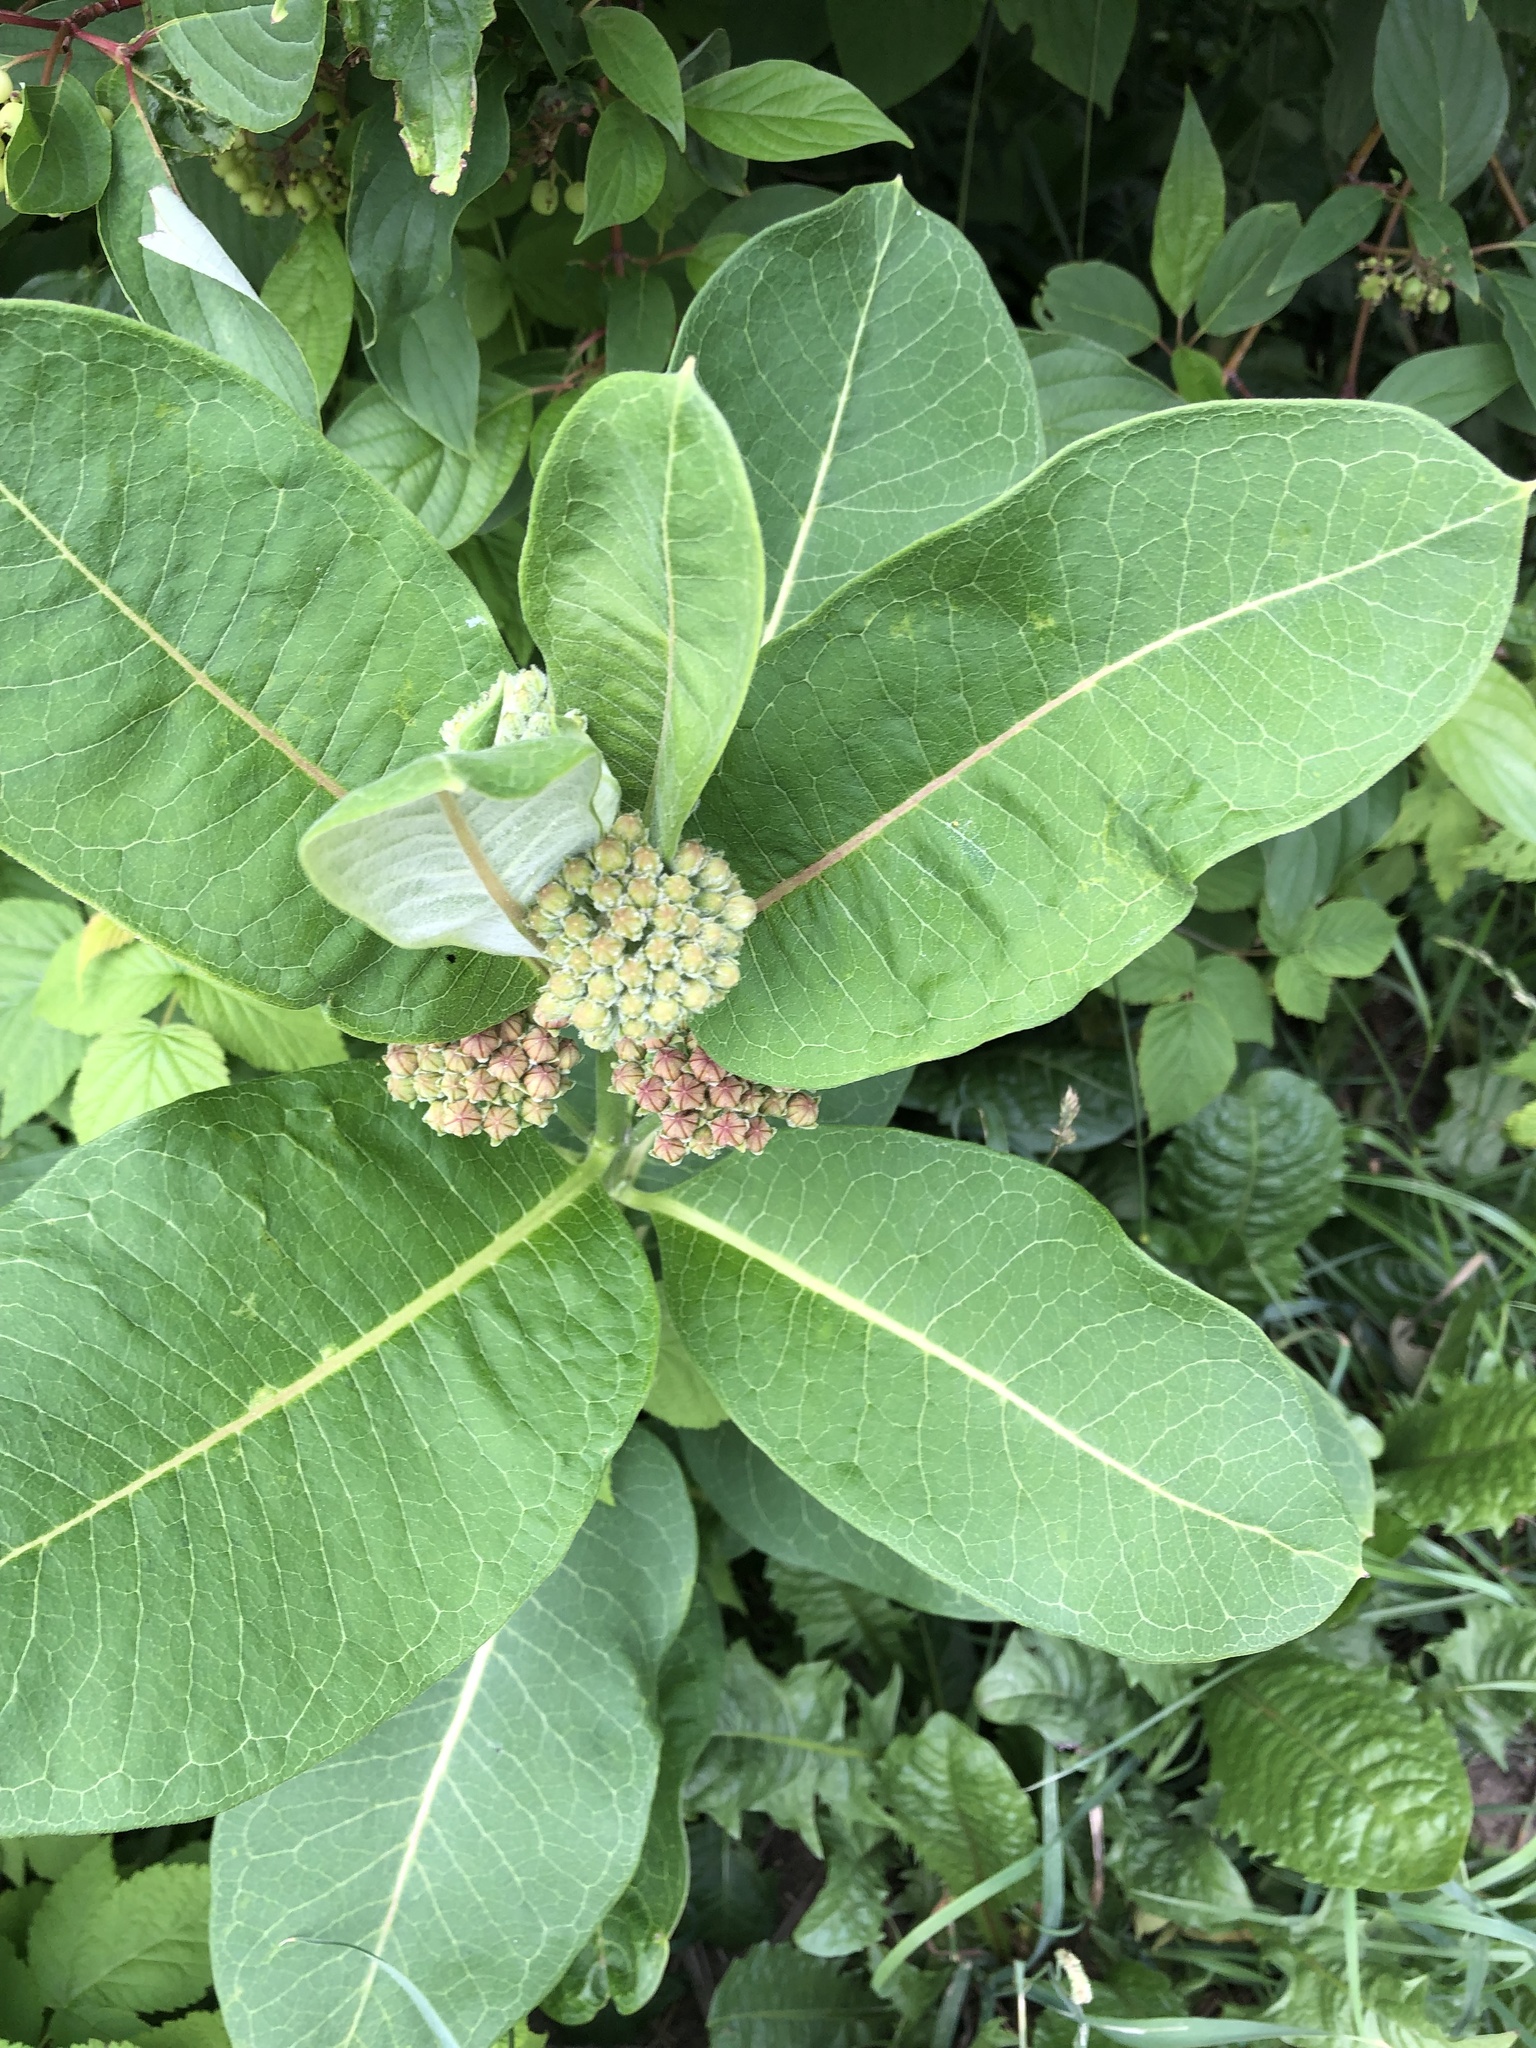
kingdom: Plantae
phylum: Tracheophyta
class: Magnoliopsida
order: Gentianales
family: Apocynaceae
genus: Asclepias
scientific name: Asclepias syriaca
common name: Common milkweed
